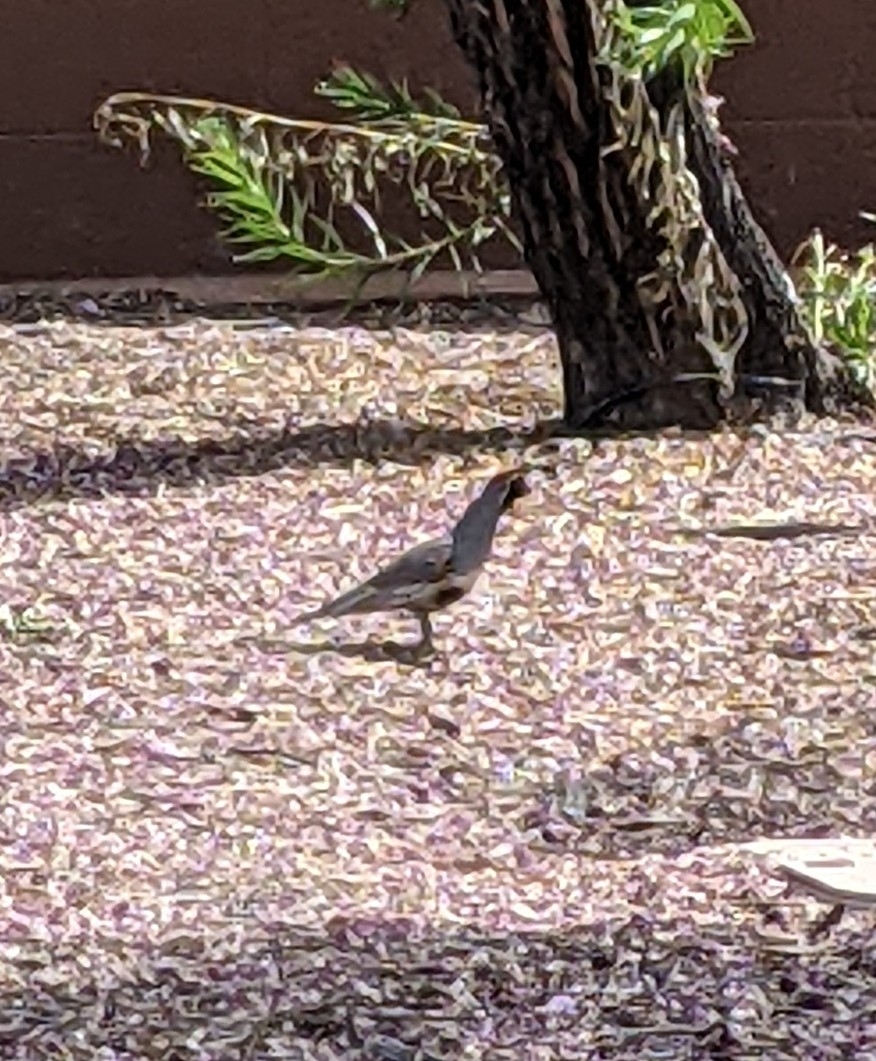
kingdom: Animalia
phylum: Chordata
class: Aves
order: Galliformes
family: Odontophoridae
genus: Callipepla
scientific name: Callipepla gambelii
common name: Gambel's quail
